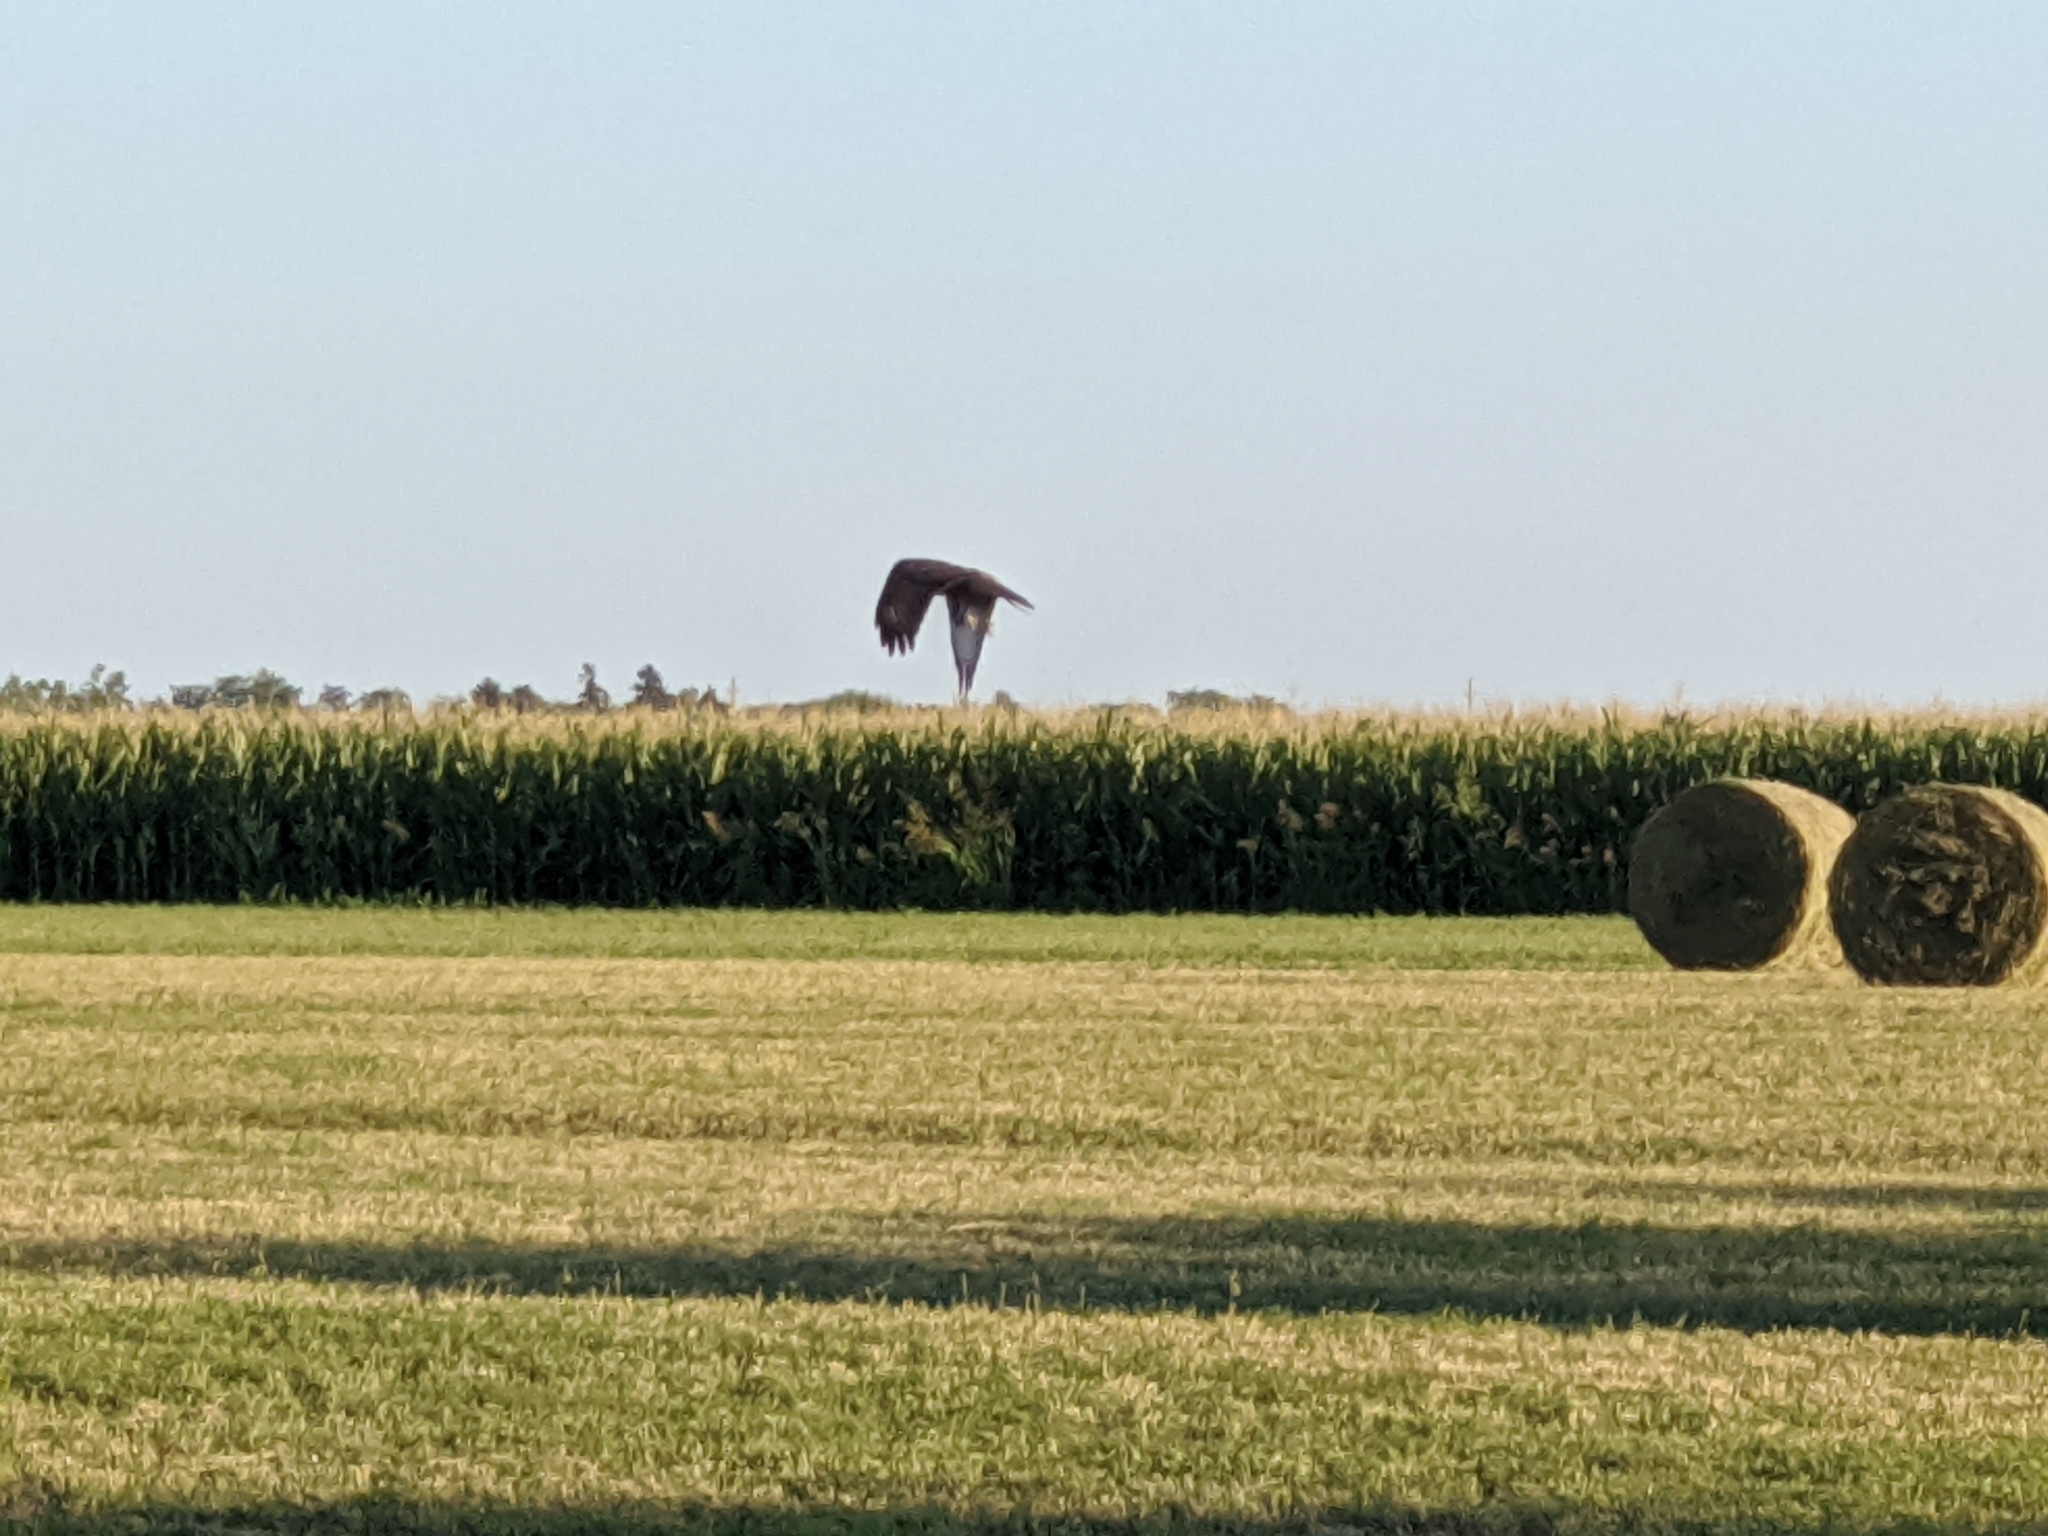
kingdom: Animalia
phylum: Chordata
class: Aves
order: Accipitriformes
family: Accipitridae
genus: Buteo
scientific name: Buteo buteo
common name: Common buzzard
